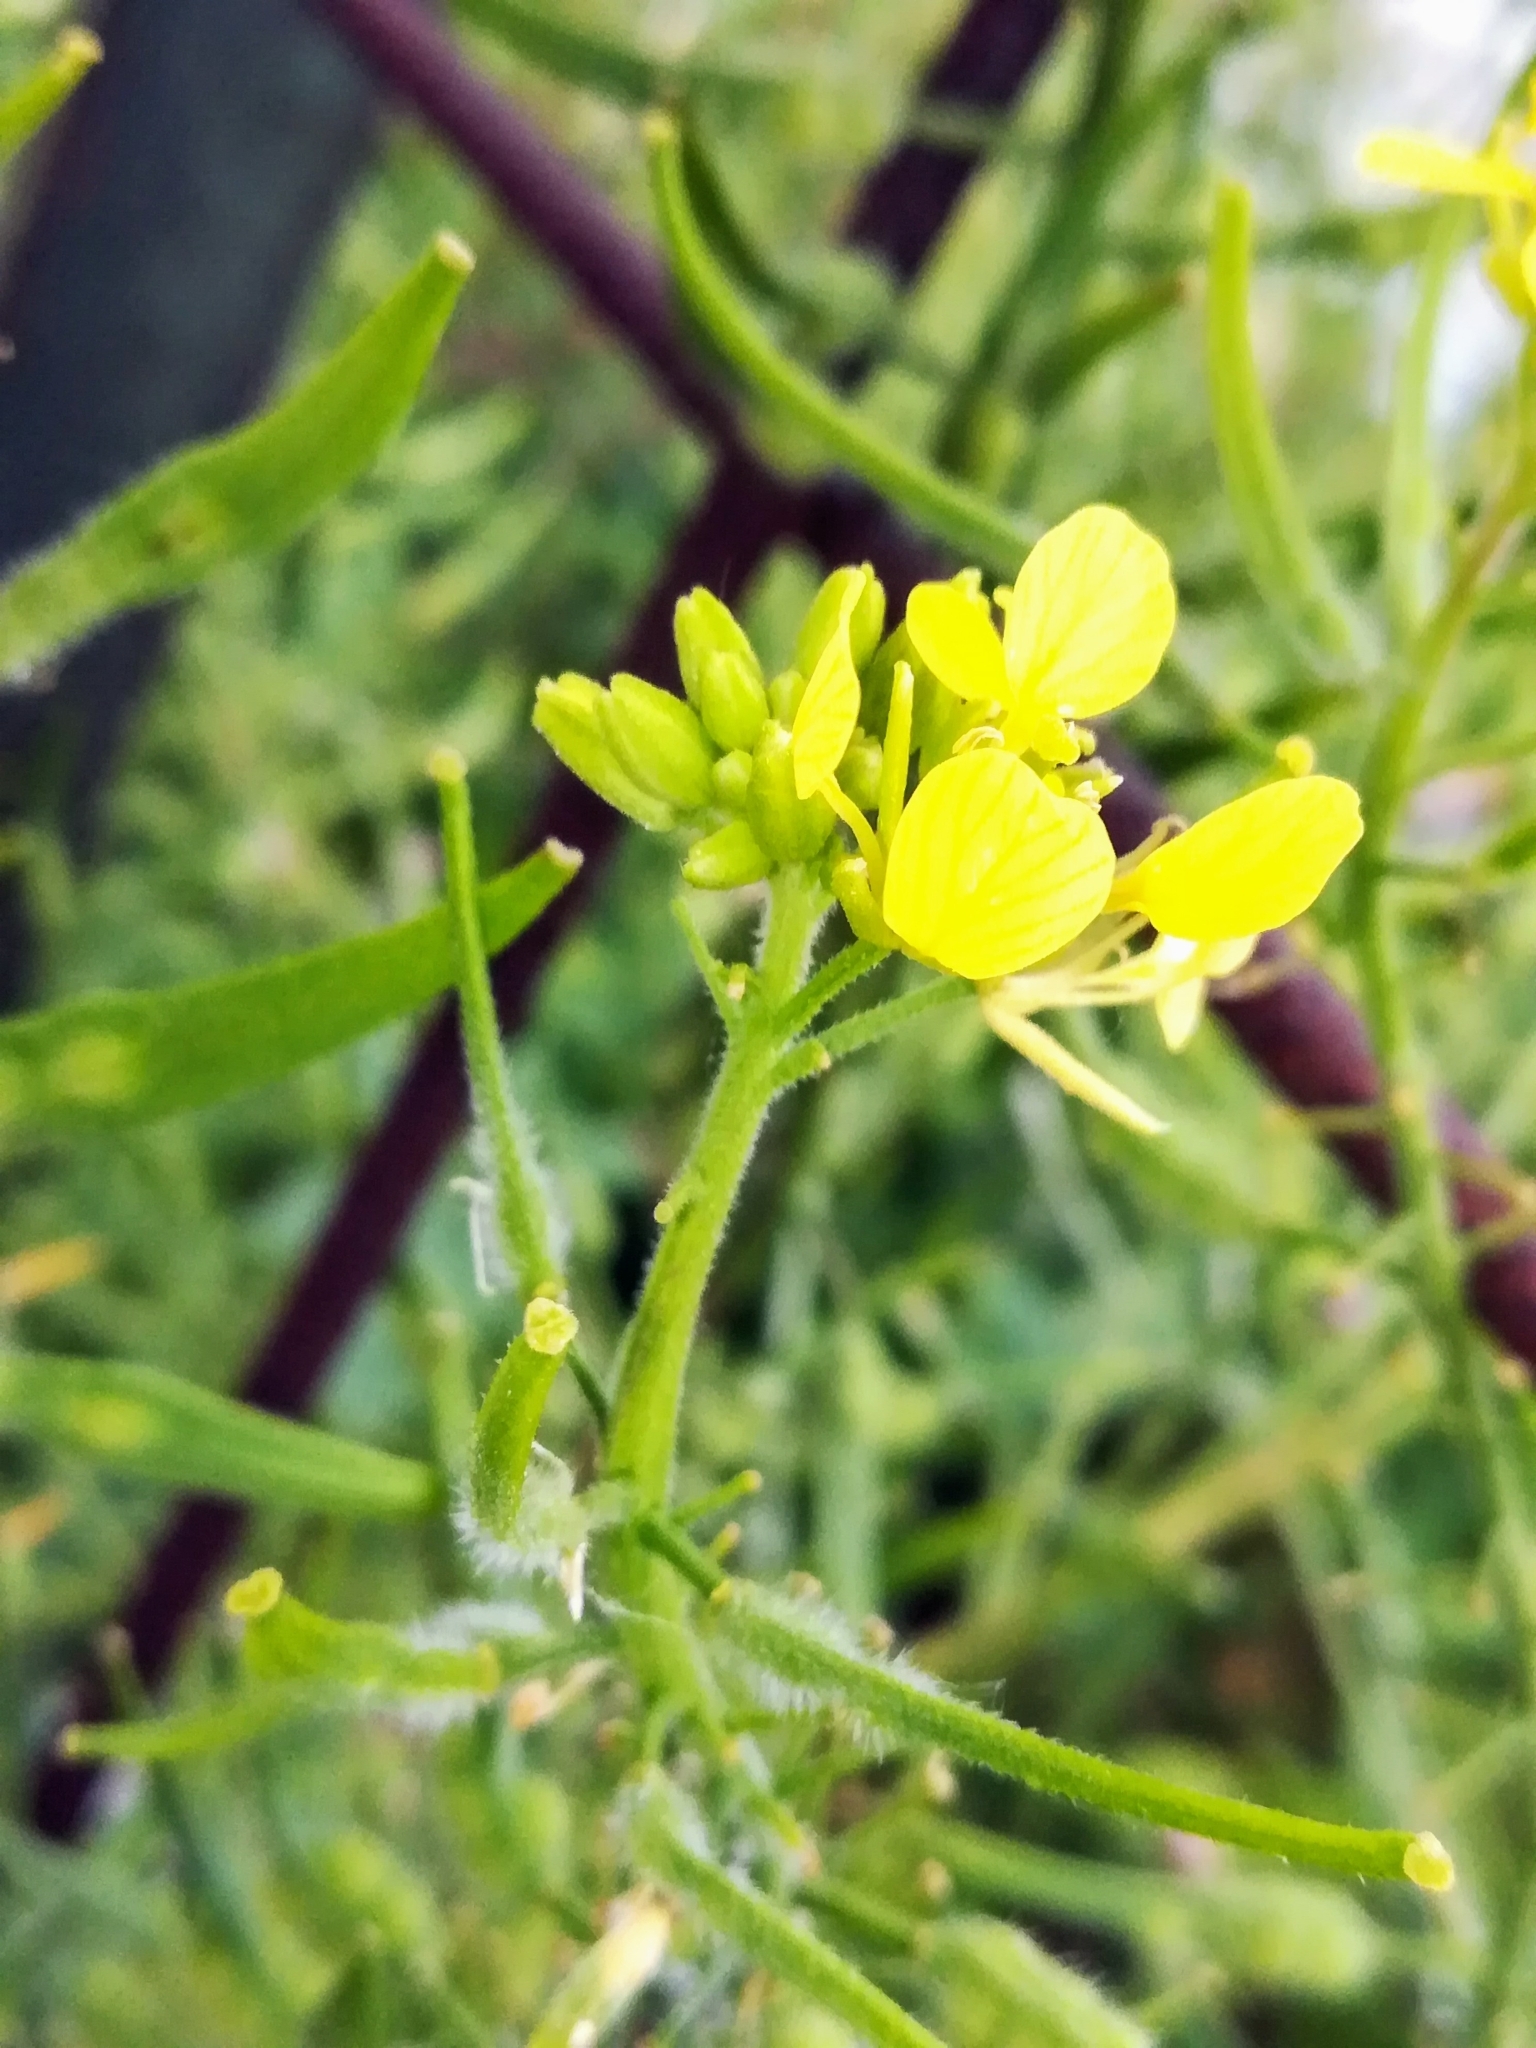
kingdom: Plantae
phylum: Tracheophyta
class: Magnoliopsida
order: Brassicales
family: Brassicaceae
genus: Sinapis
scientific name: Sinapis alba
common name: White mustard
